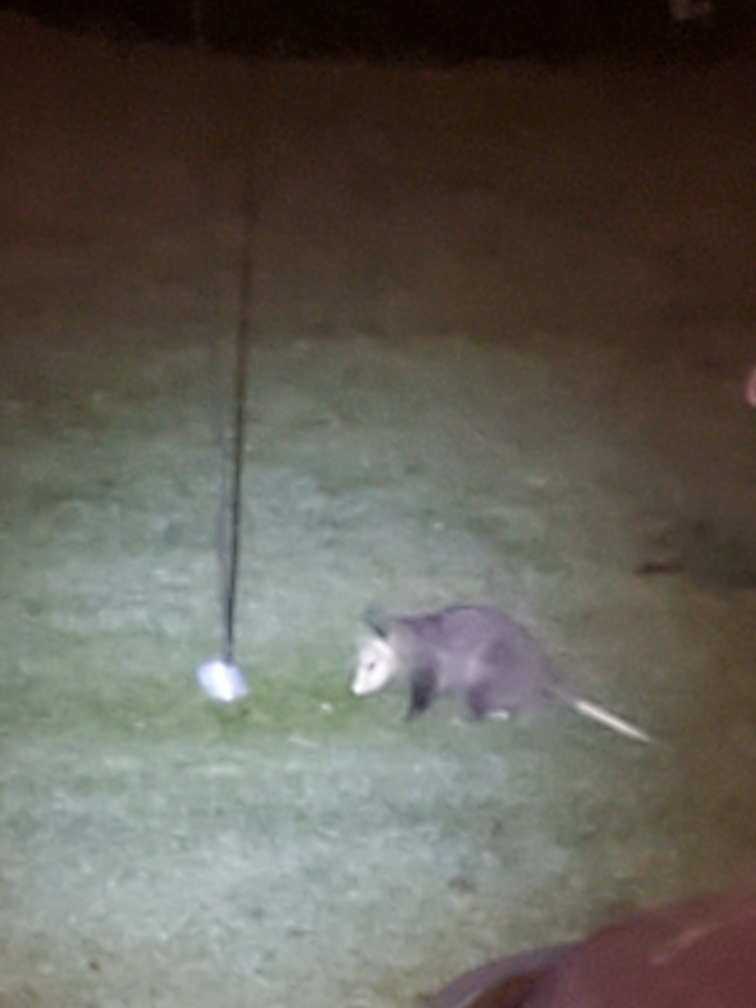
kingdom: Animalia
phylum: Chordata
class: Mammalia
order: Didelphimorphia
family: Didelphidae
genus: Didelphis
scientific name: Didelphis virginiana
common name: Virginia opossum
